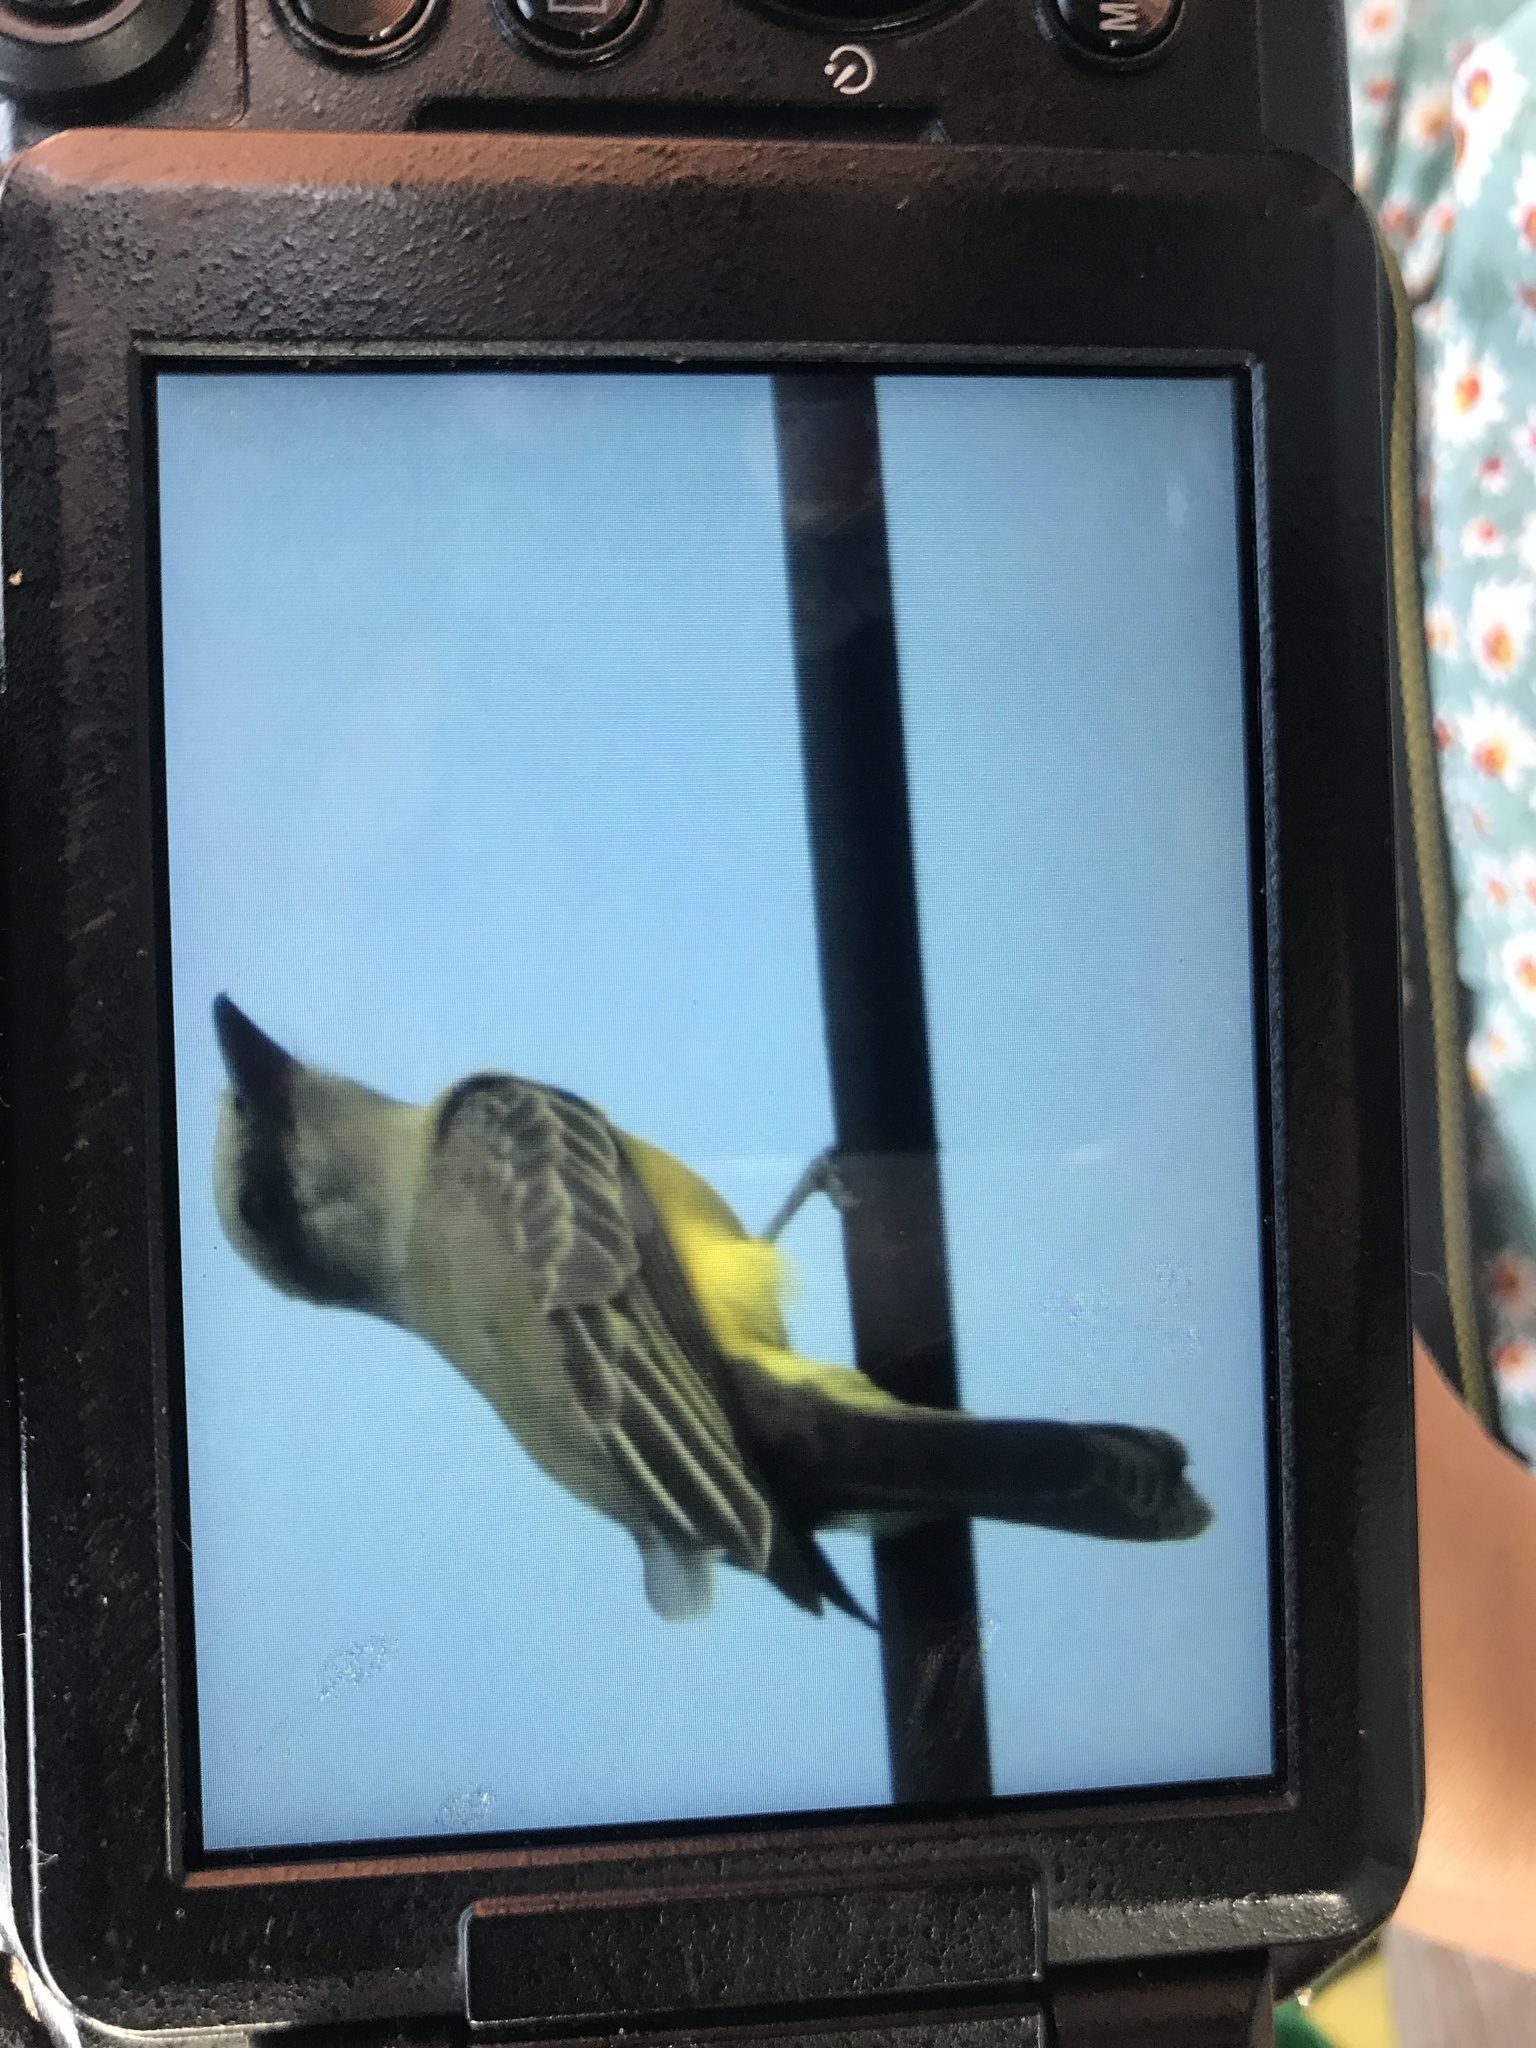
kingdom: Animalia
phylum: Chordata
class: Aves
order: Passeriformes
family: Tyrannidae
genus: Tyrannus
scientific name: Tyrannus melancholicus
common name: Tropical kingbird
